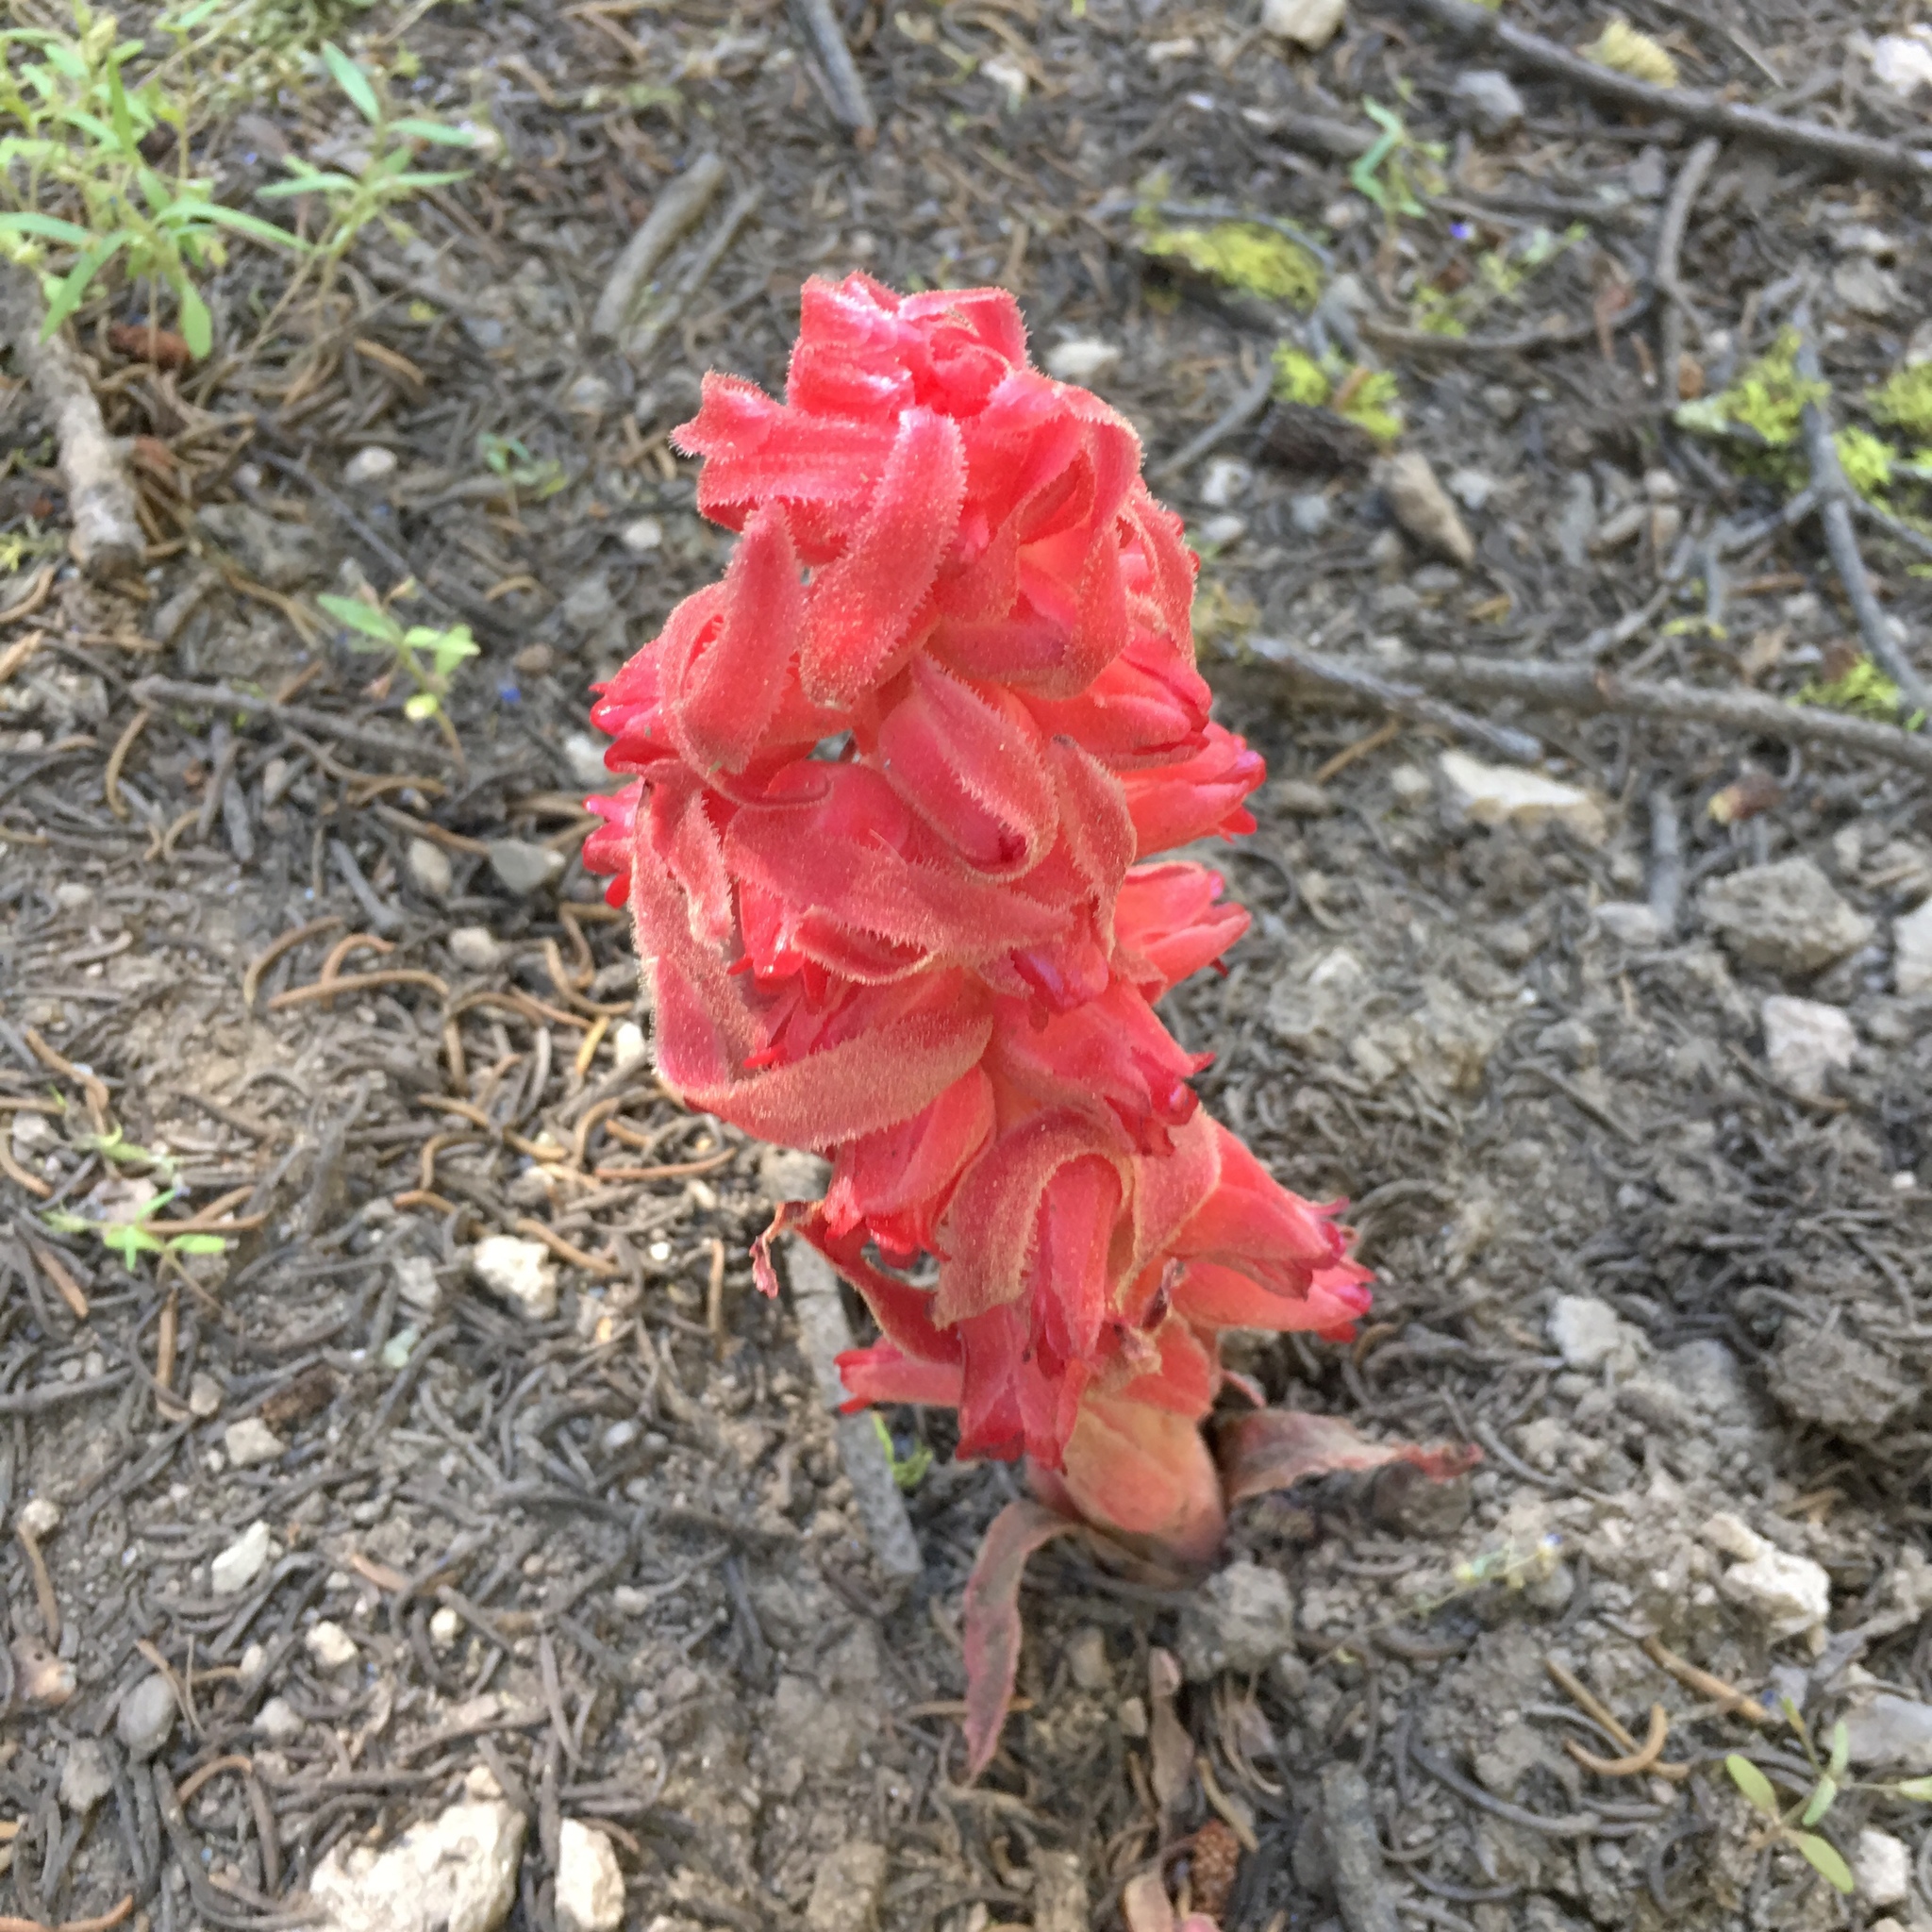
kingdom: Plantae
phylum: Tracheophyta
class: Magnoliopsida
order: Ericales
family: Ericaceae
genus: Sarcodes
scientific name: Sarcodes sanguinea
